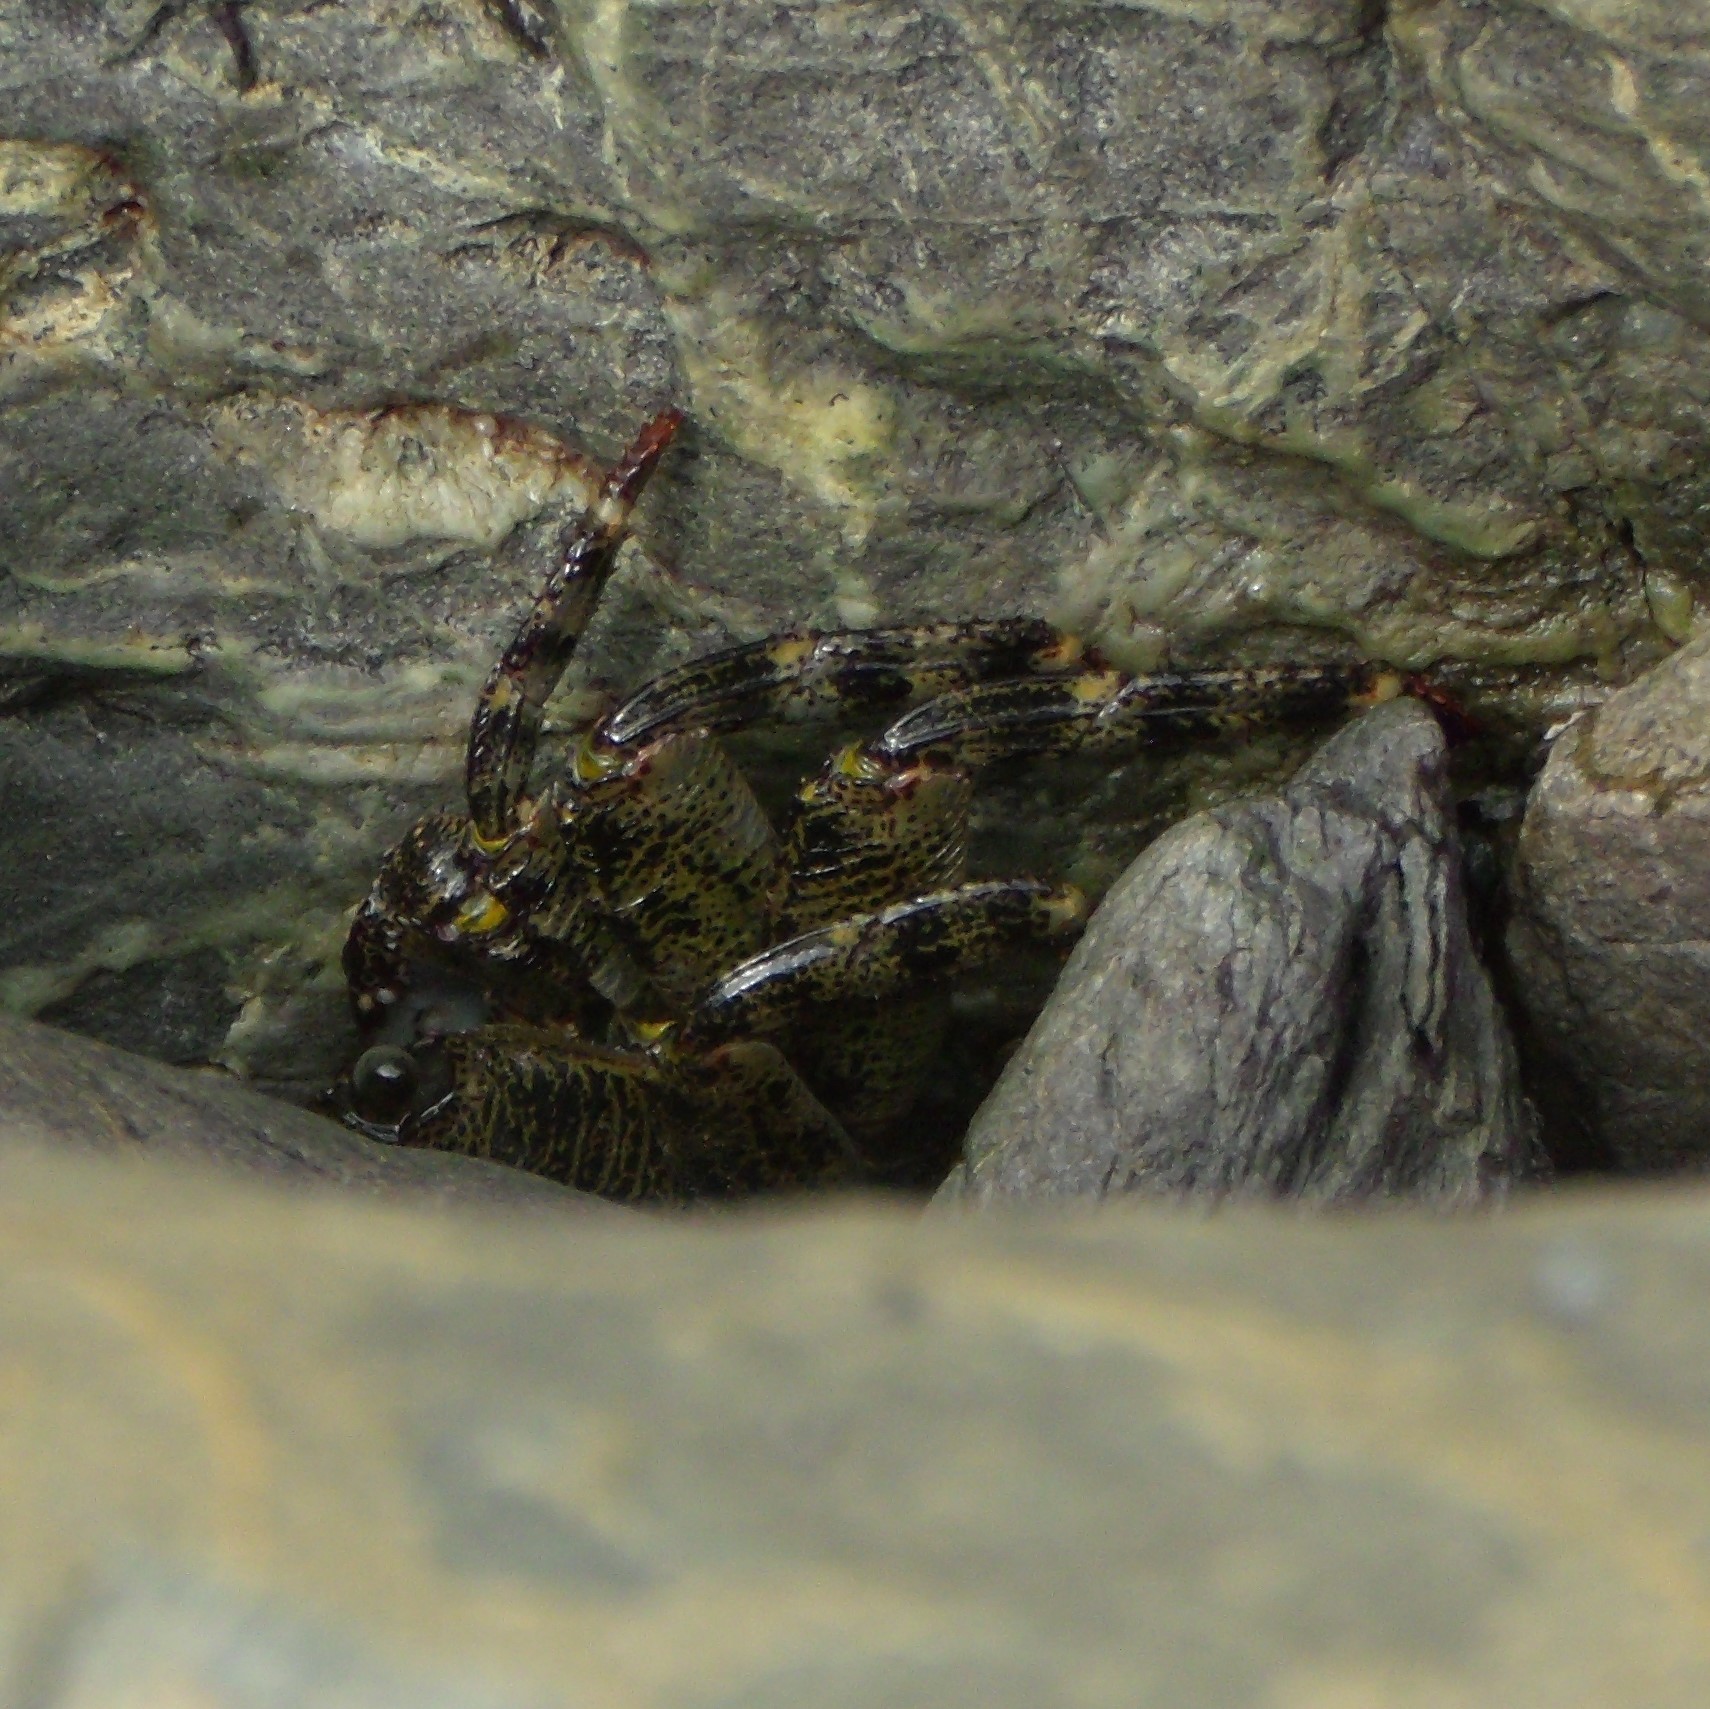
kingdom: Animalia
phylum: Arthropoda
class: Malacostraca
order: Decapoda
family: Grapsidae
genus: Leptograpsus
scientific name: Leptograpsus variegatus
